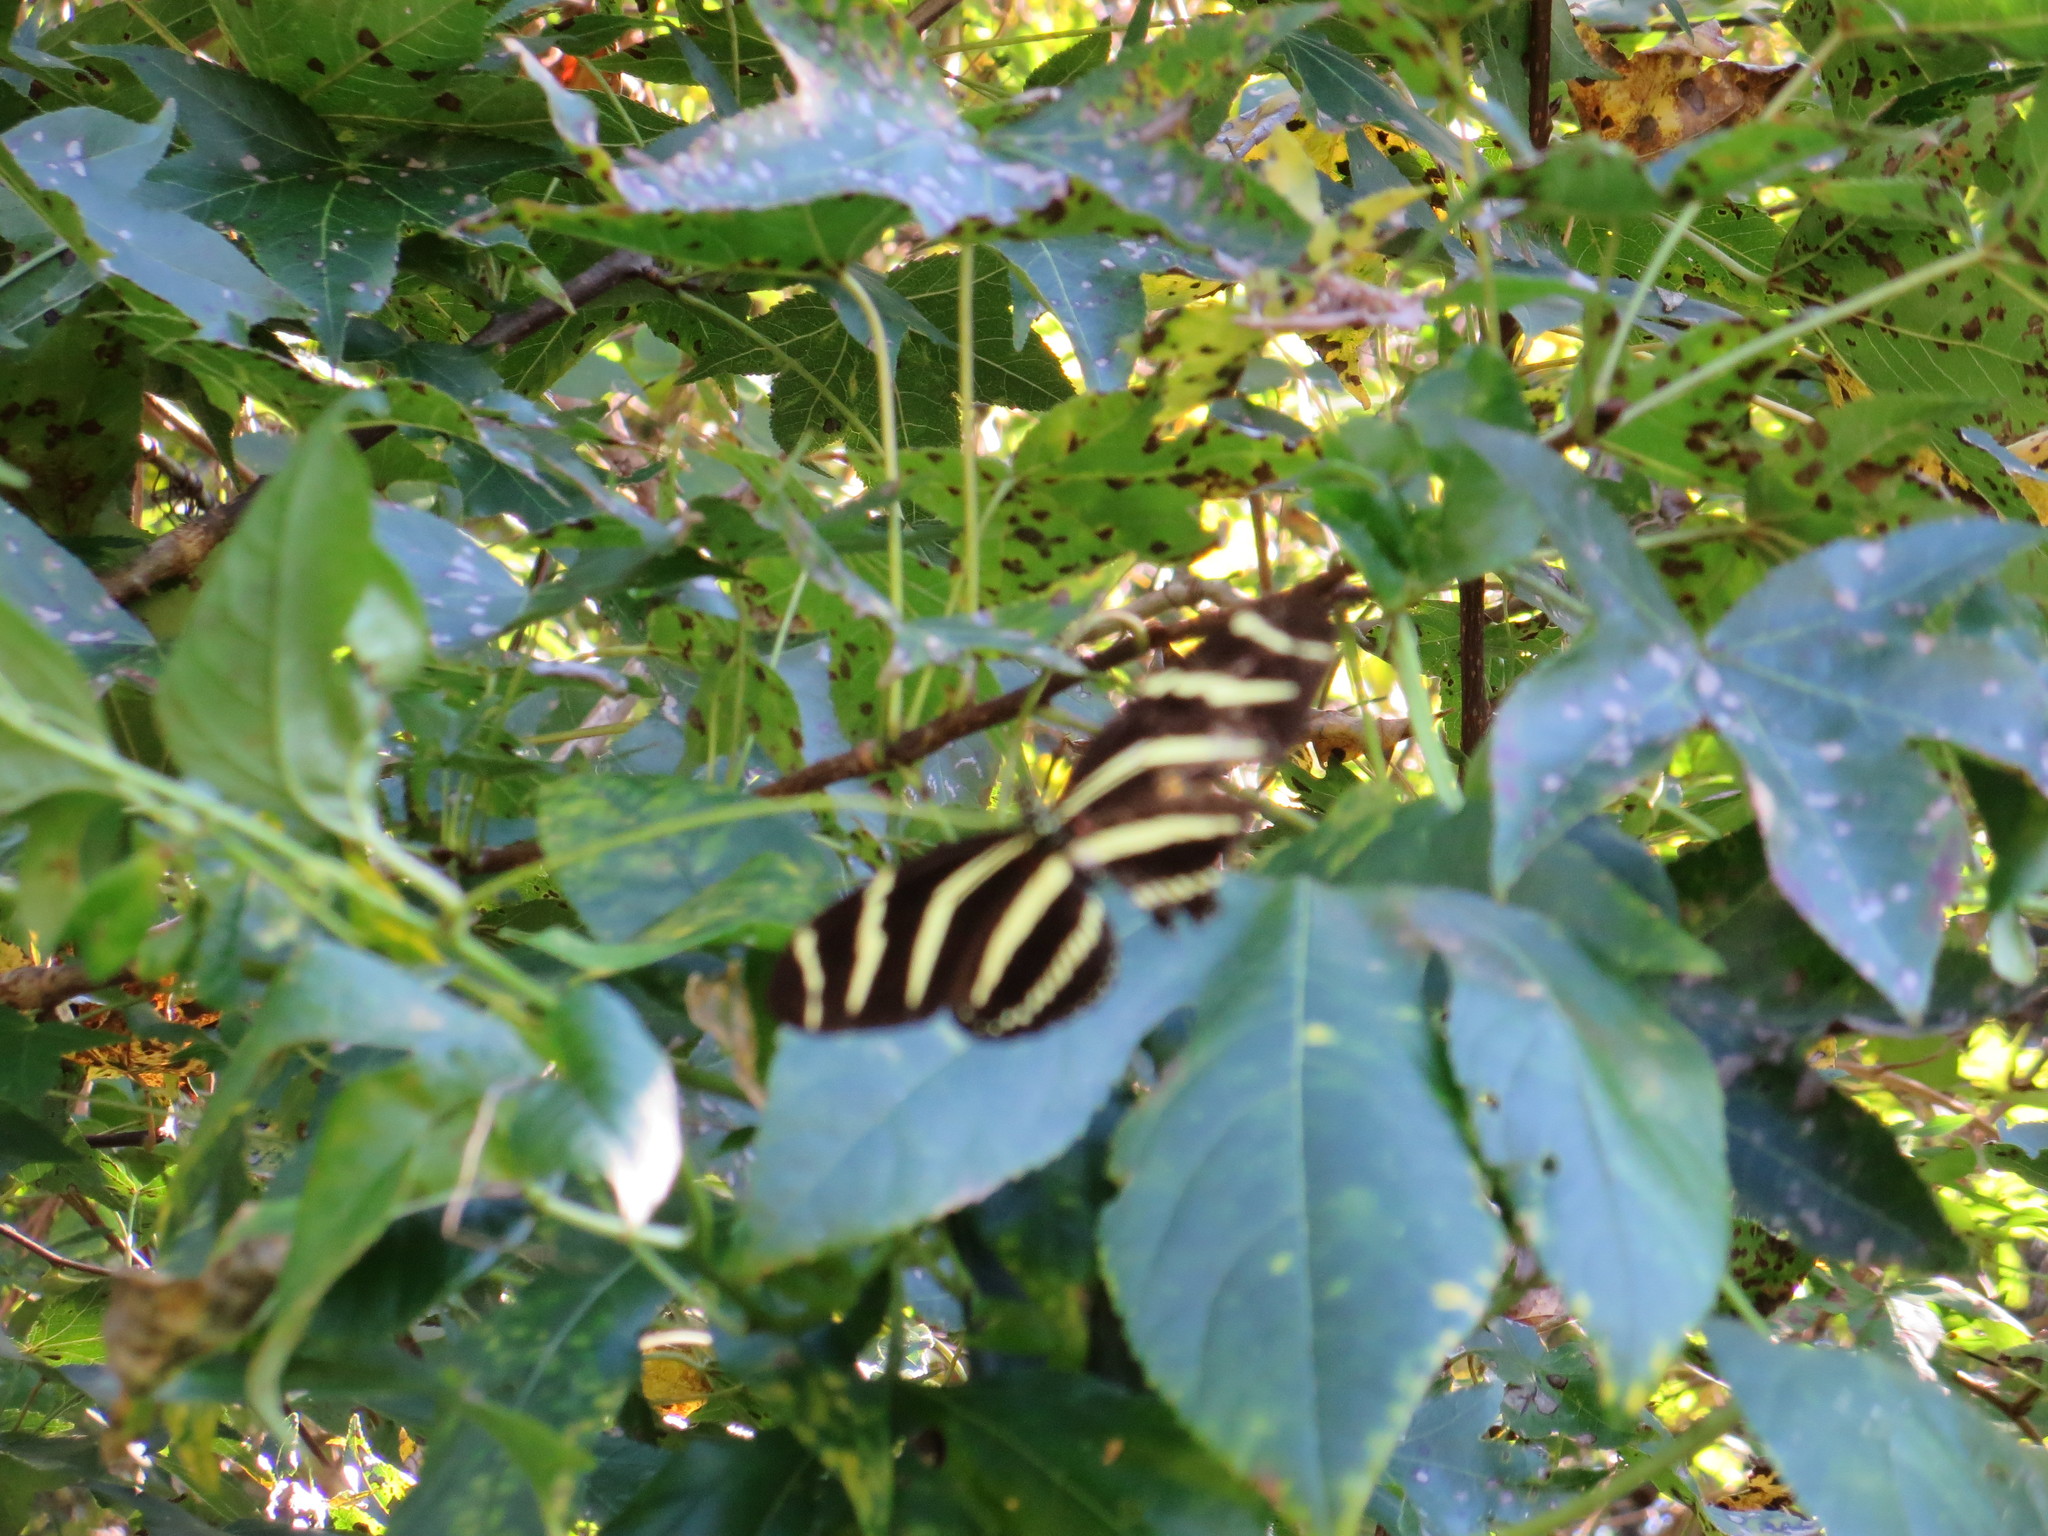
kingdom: Animalia
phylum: Arthropoda
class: Insecta
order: Lepidoptera
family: Nymphalidae
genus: Heliconius
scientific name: Heliconius charithonia
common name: Zebra long wing
